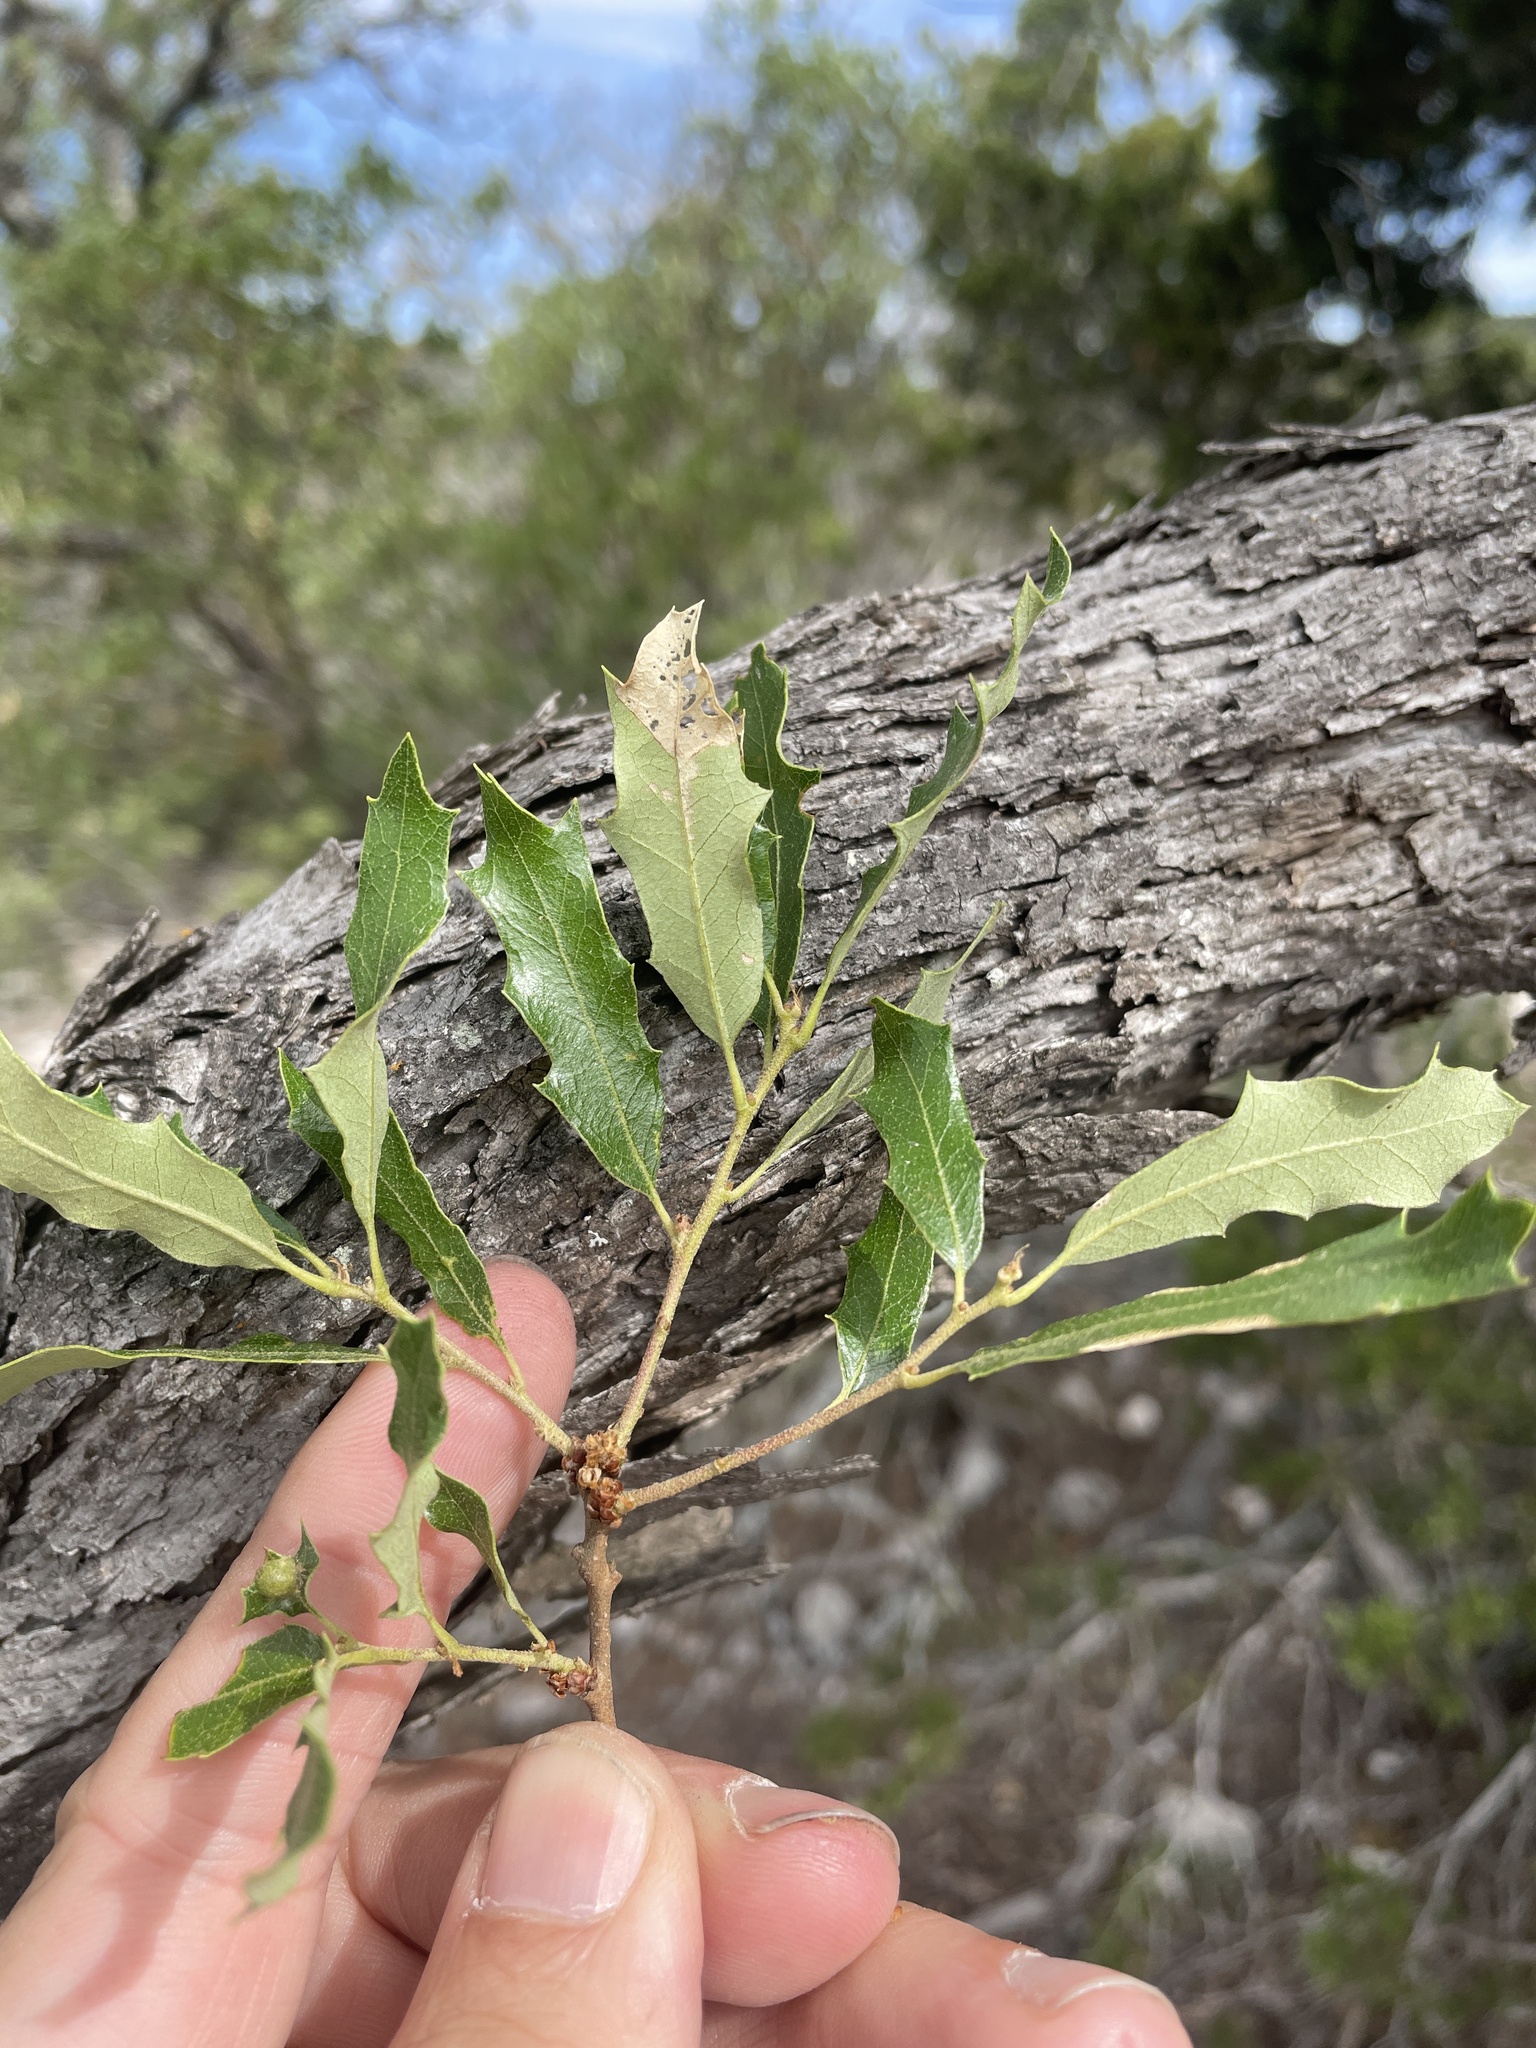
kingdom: Plantae
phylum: Tracheophyta
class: Magnoliopsida
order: Fagales
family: Fagaceae
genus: Quercus
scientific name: Quercus vaseyana
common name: Sandpaper oak
